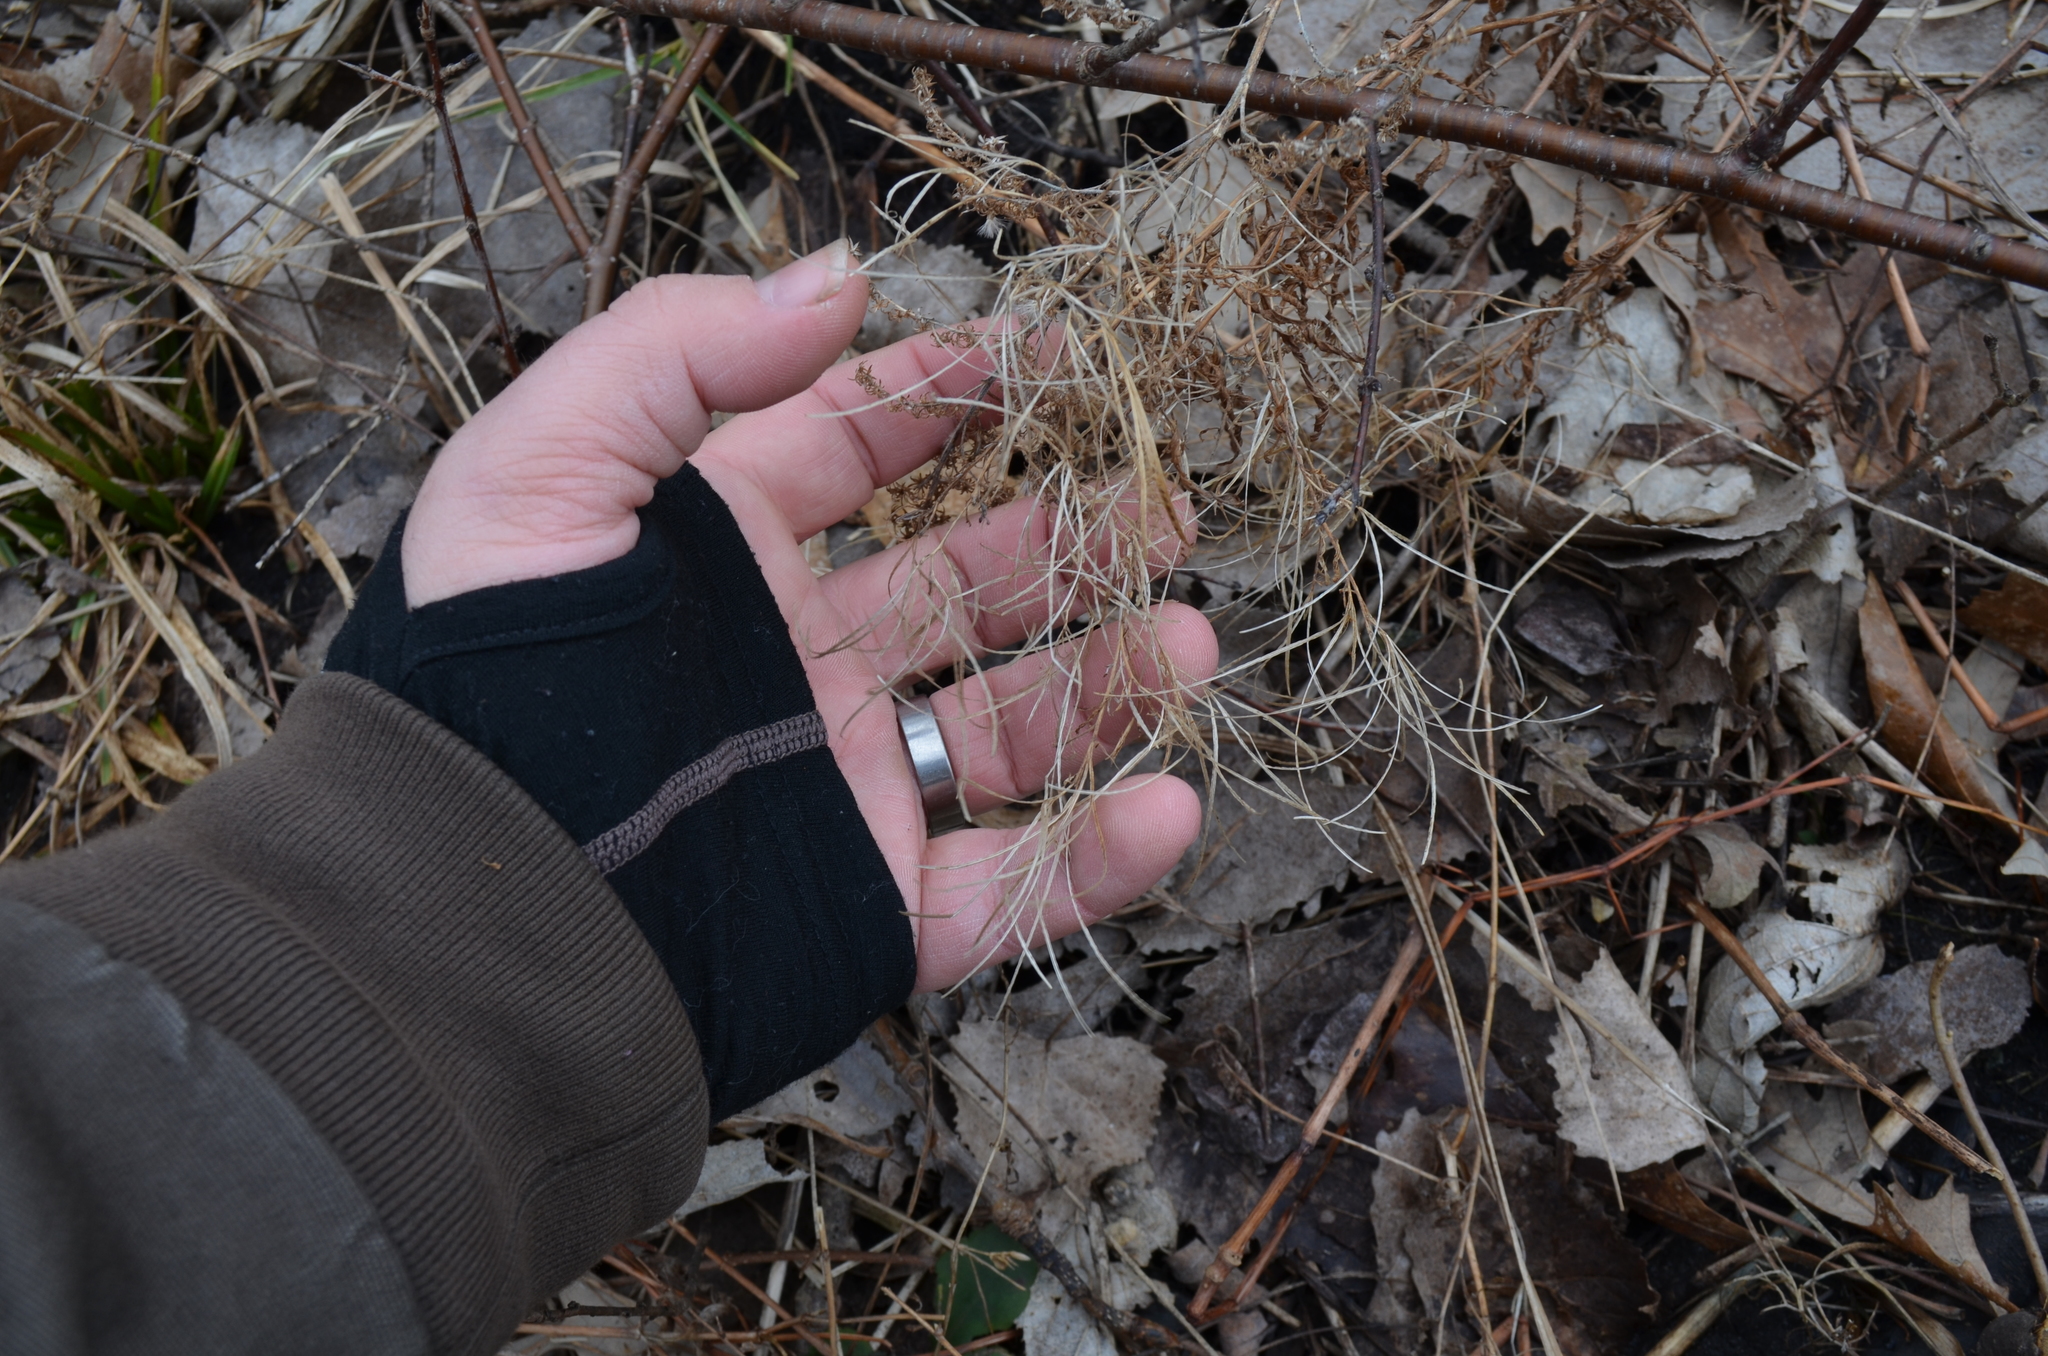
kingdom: Plantae
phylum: Tracheophyta
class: Magnoliopsida
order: Myrtales
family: Onagraceae
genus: Epilobium
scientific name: Epilobium ciliatum
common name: American willowherb
